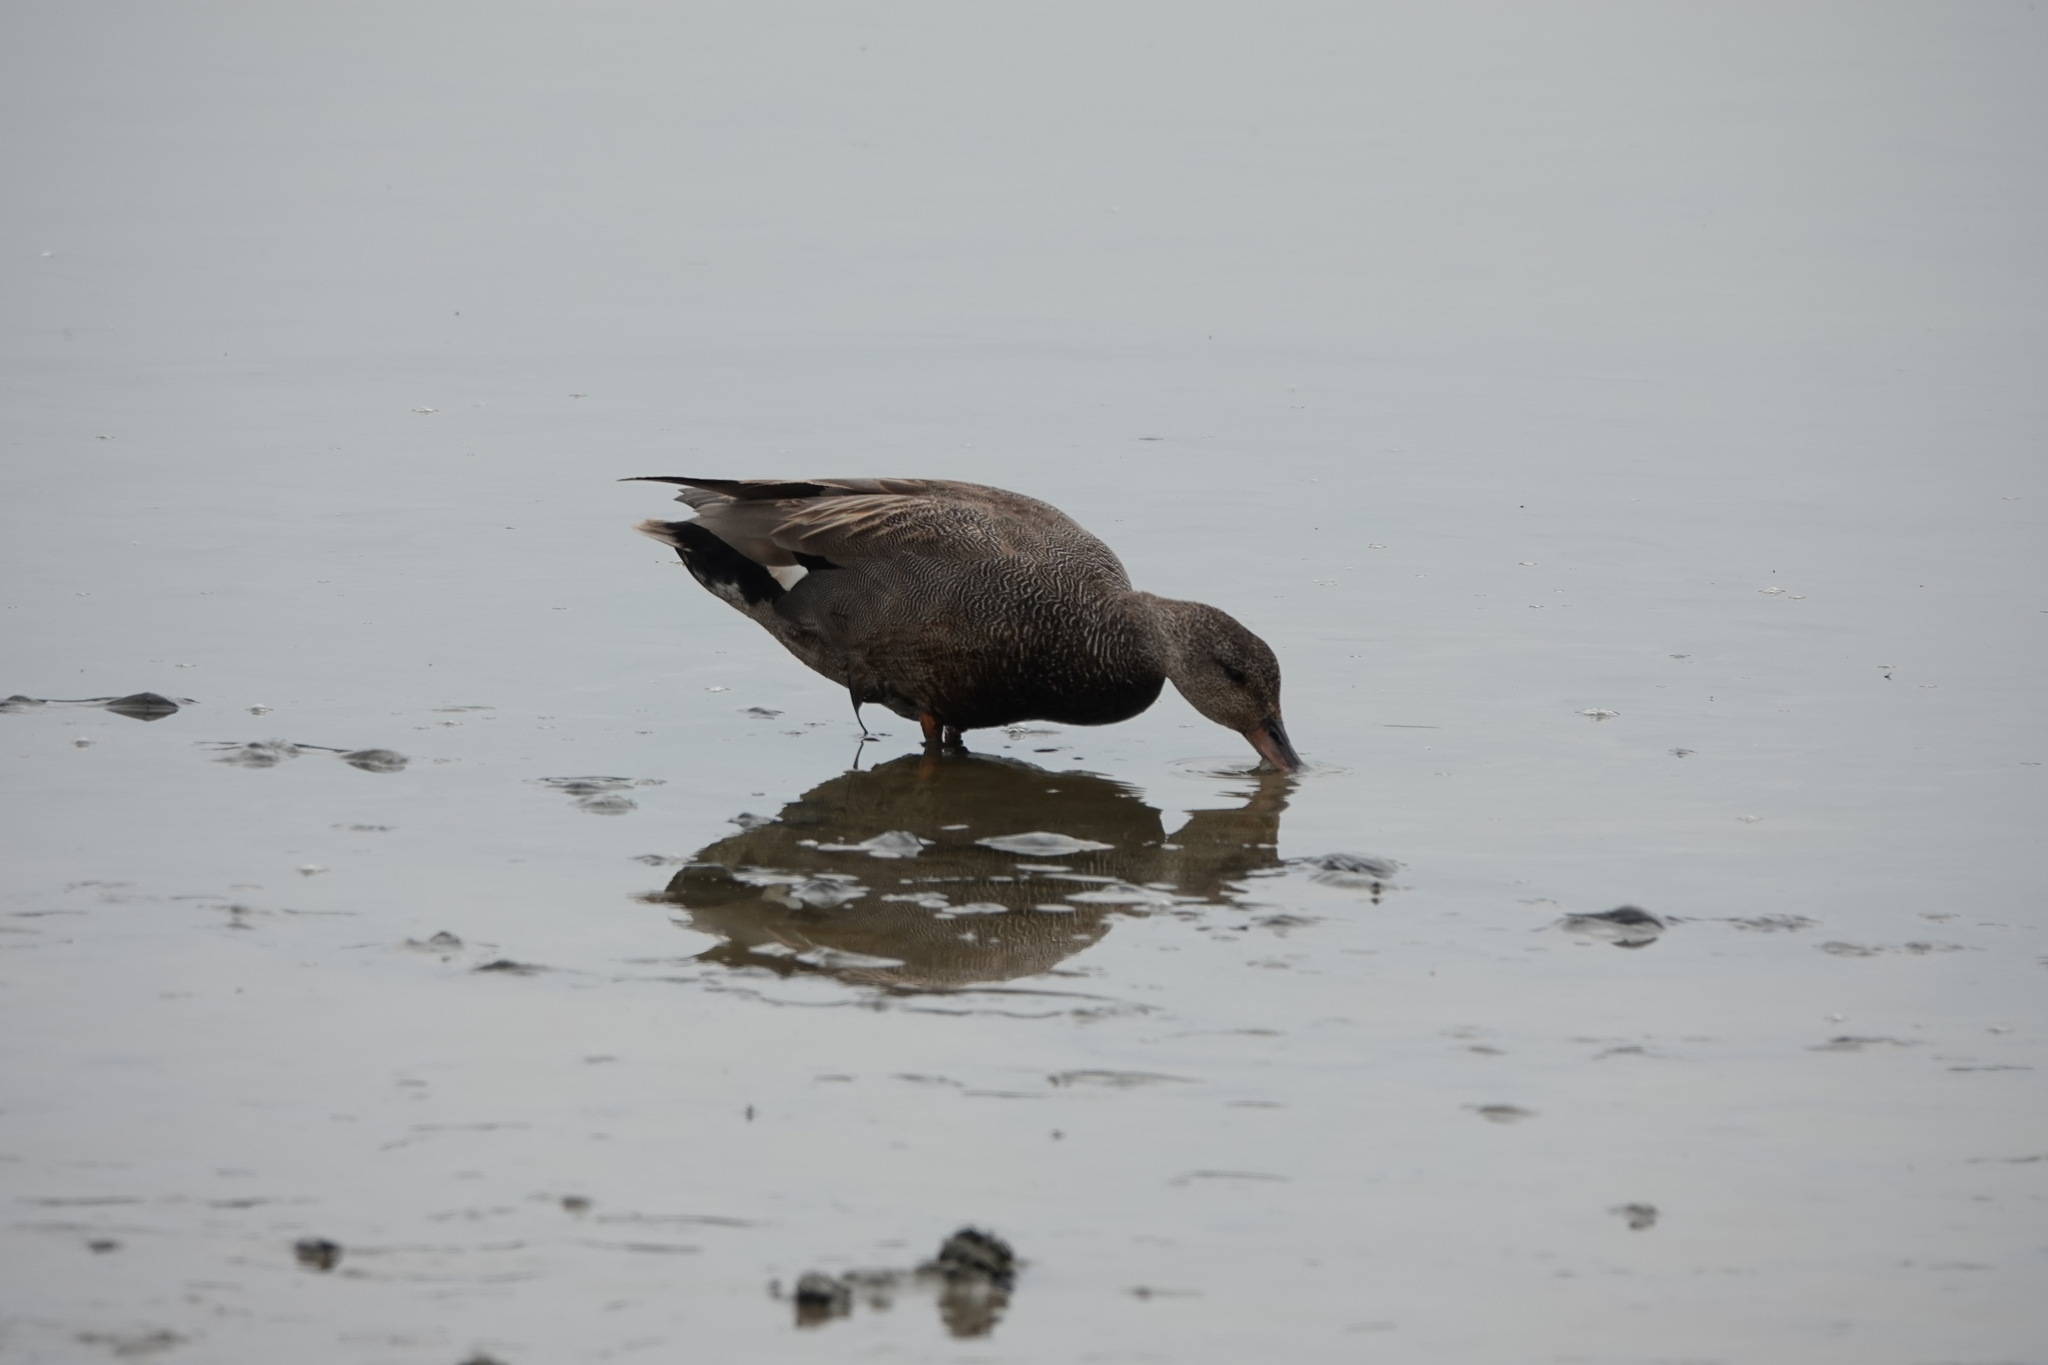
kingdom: Animalia
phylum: Chordata
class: Aves
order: Anseriformes
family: Anatidae
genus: Mareca
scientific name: Mareca strepera
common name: Gadwall
